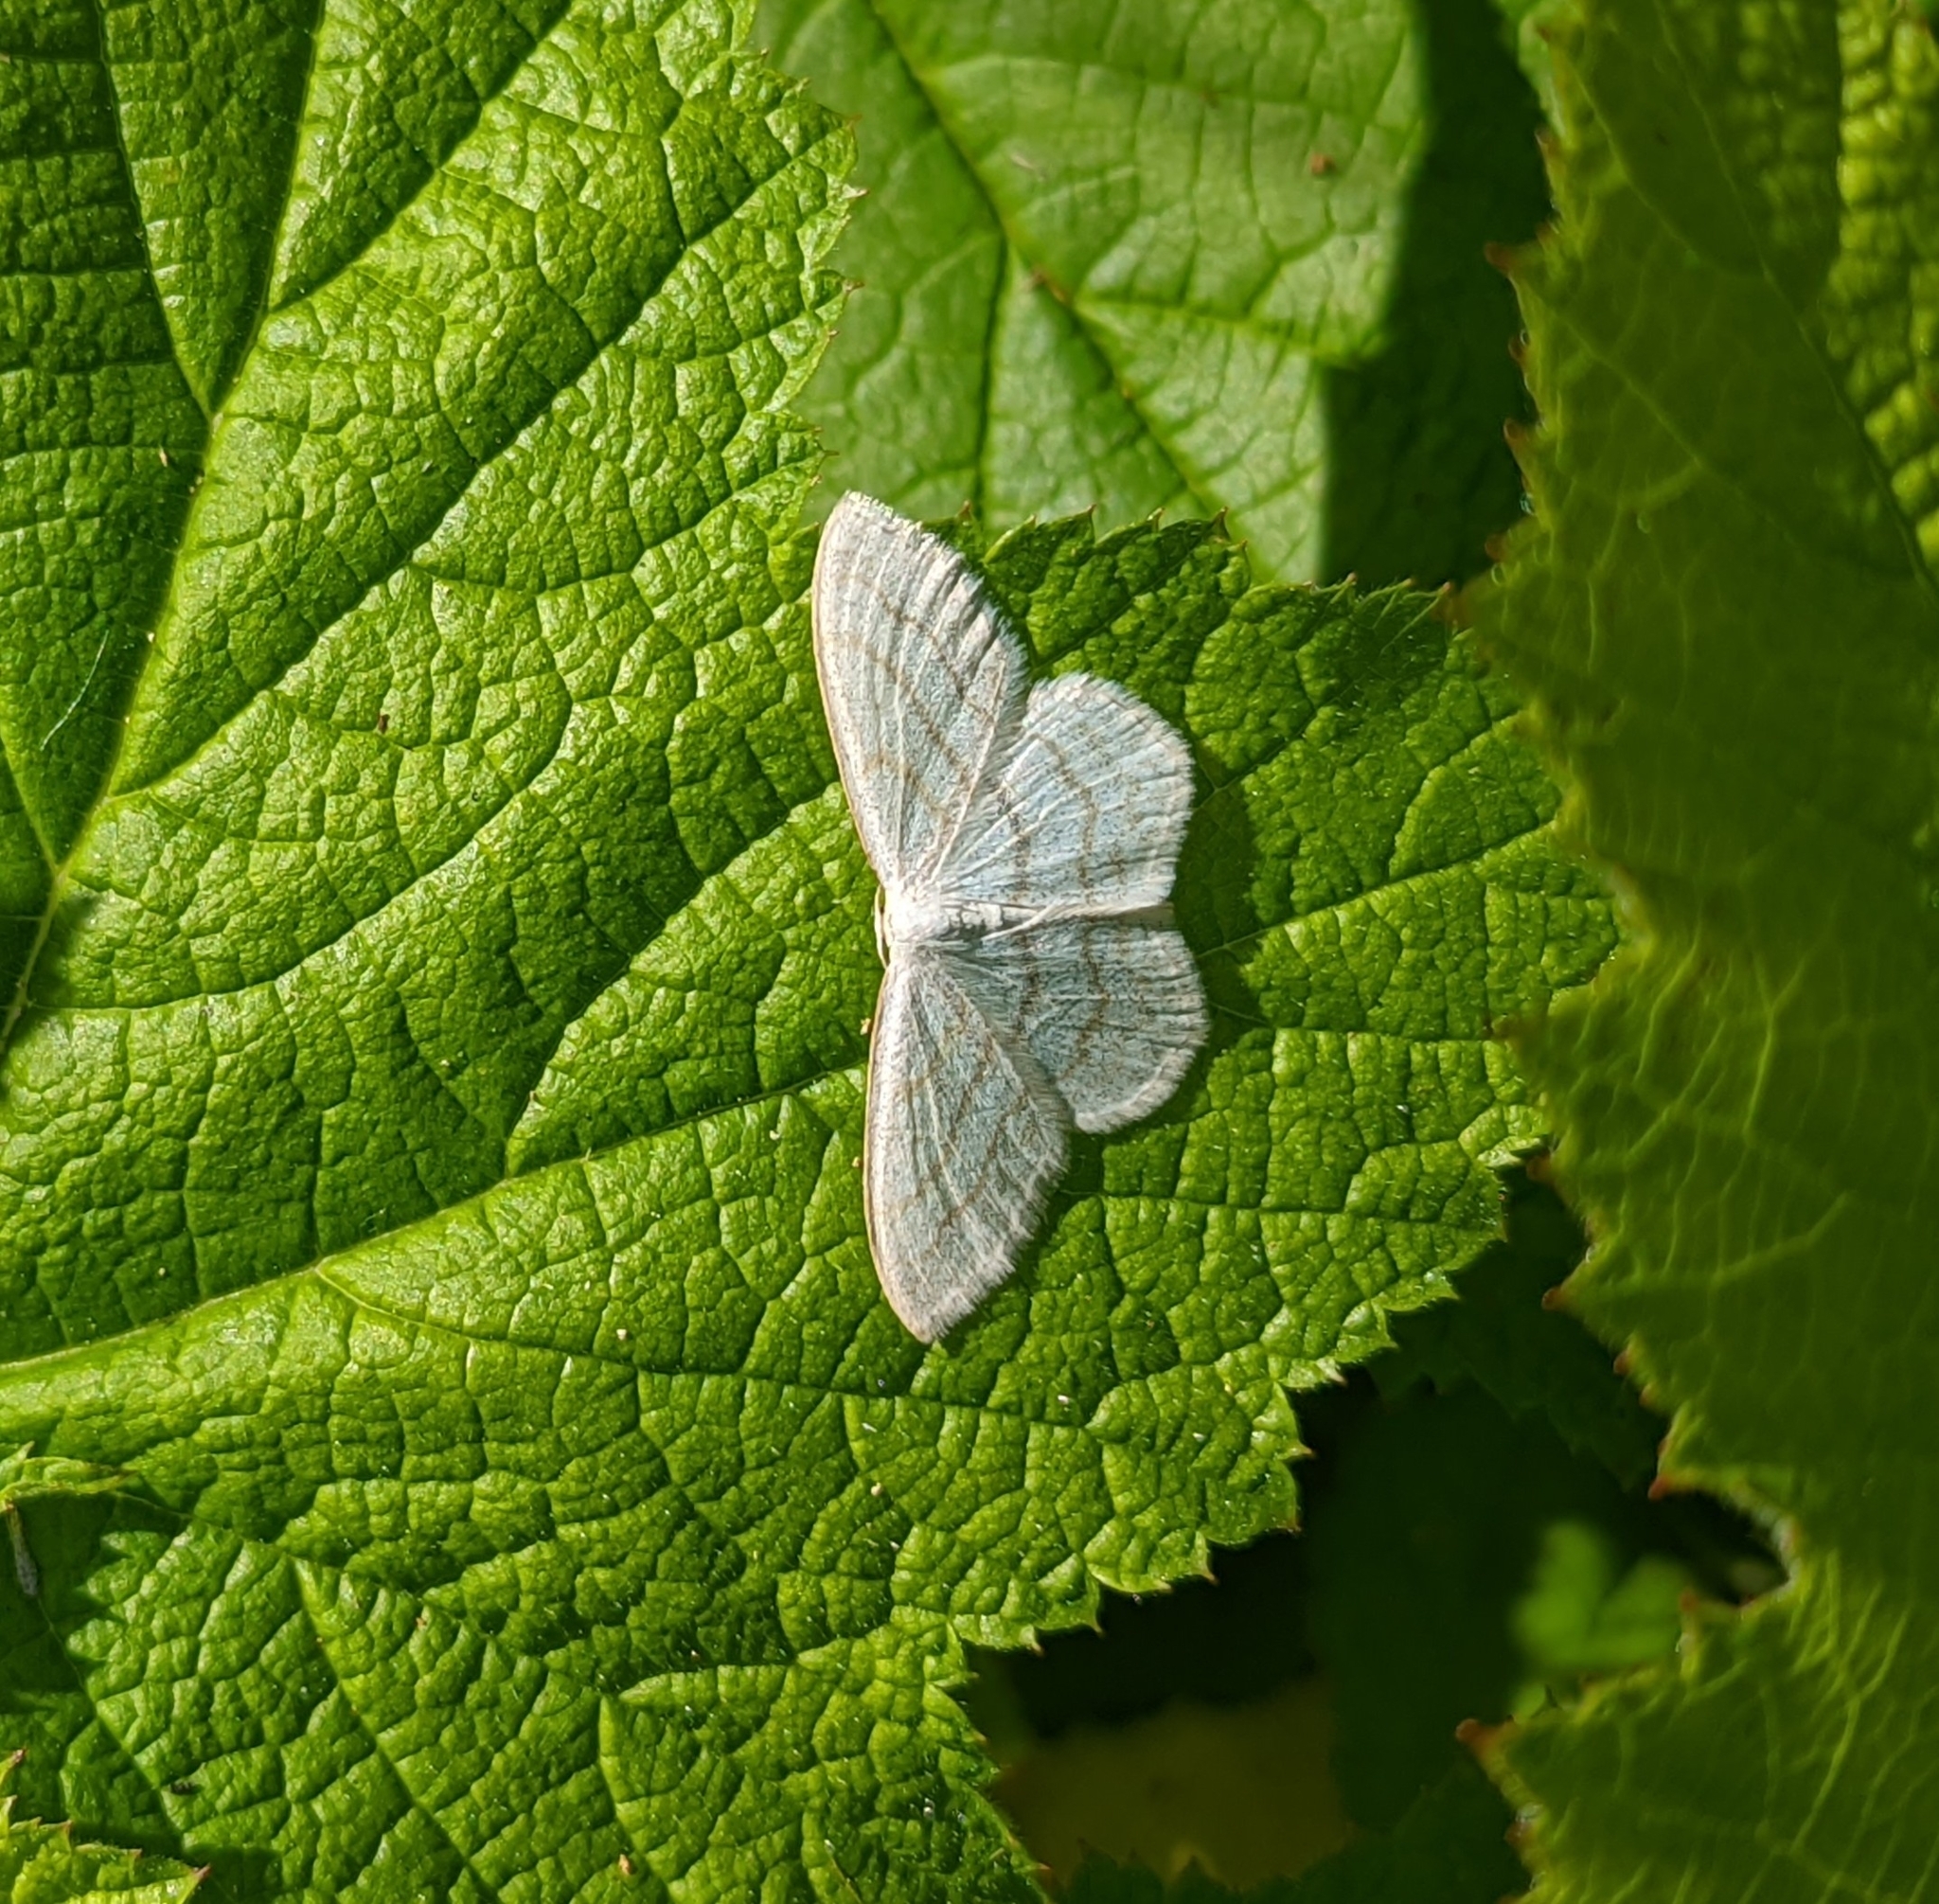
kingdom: Animalia
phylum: Arthropoda
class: Insecta
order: Lepidoptera
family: Geometridae
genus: Scopula
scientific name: Scopula junctaria
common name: Simple wave
